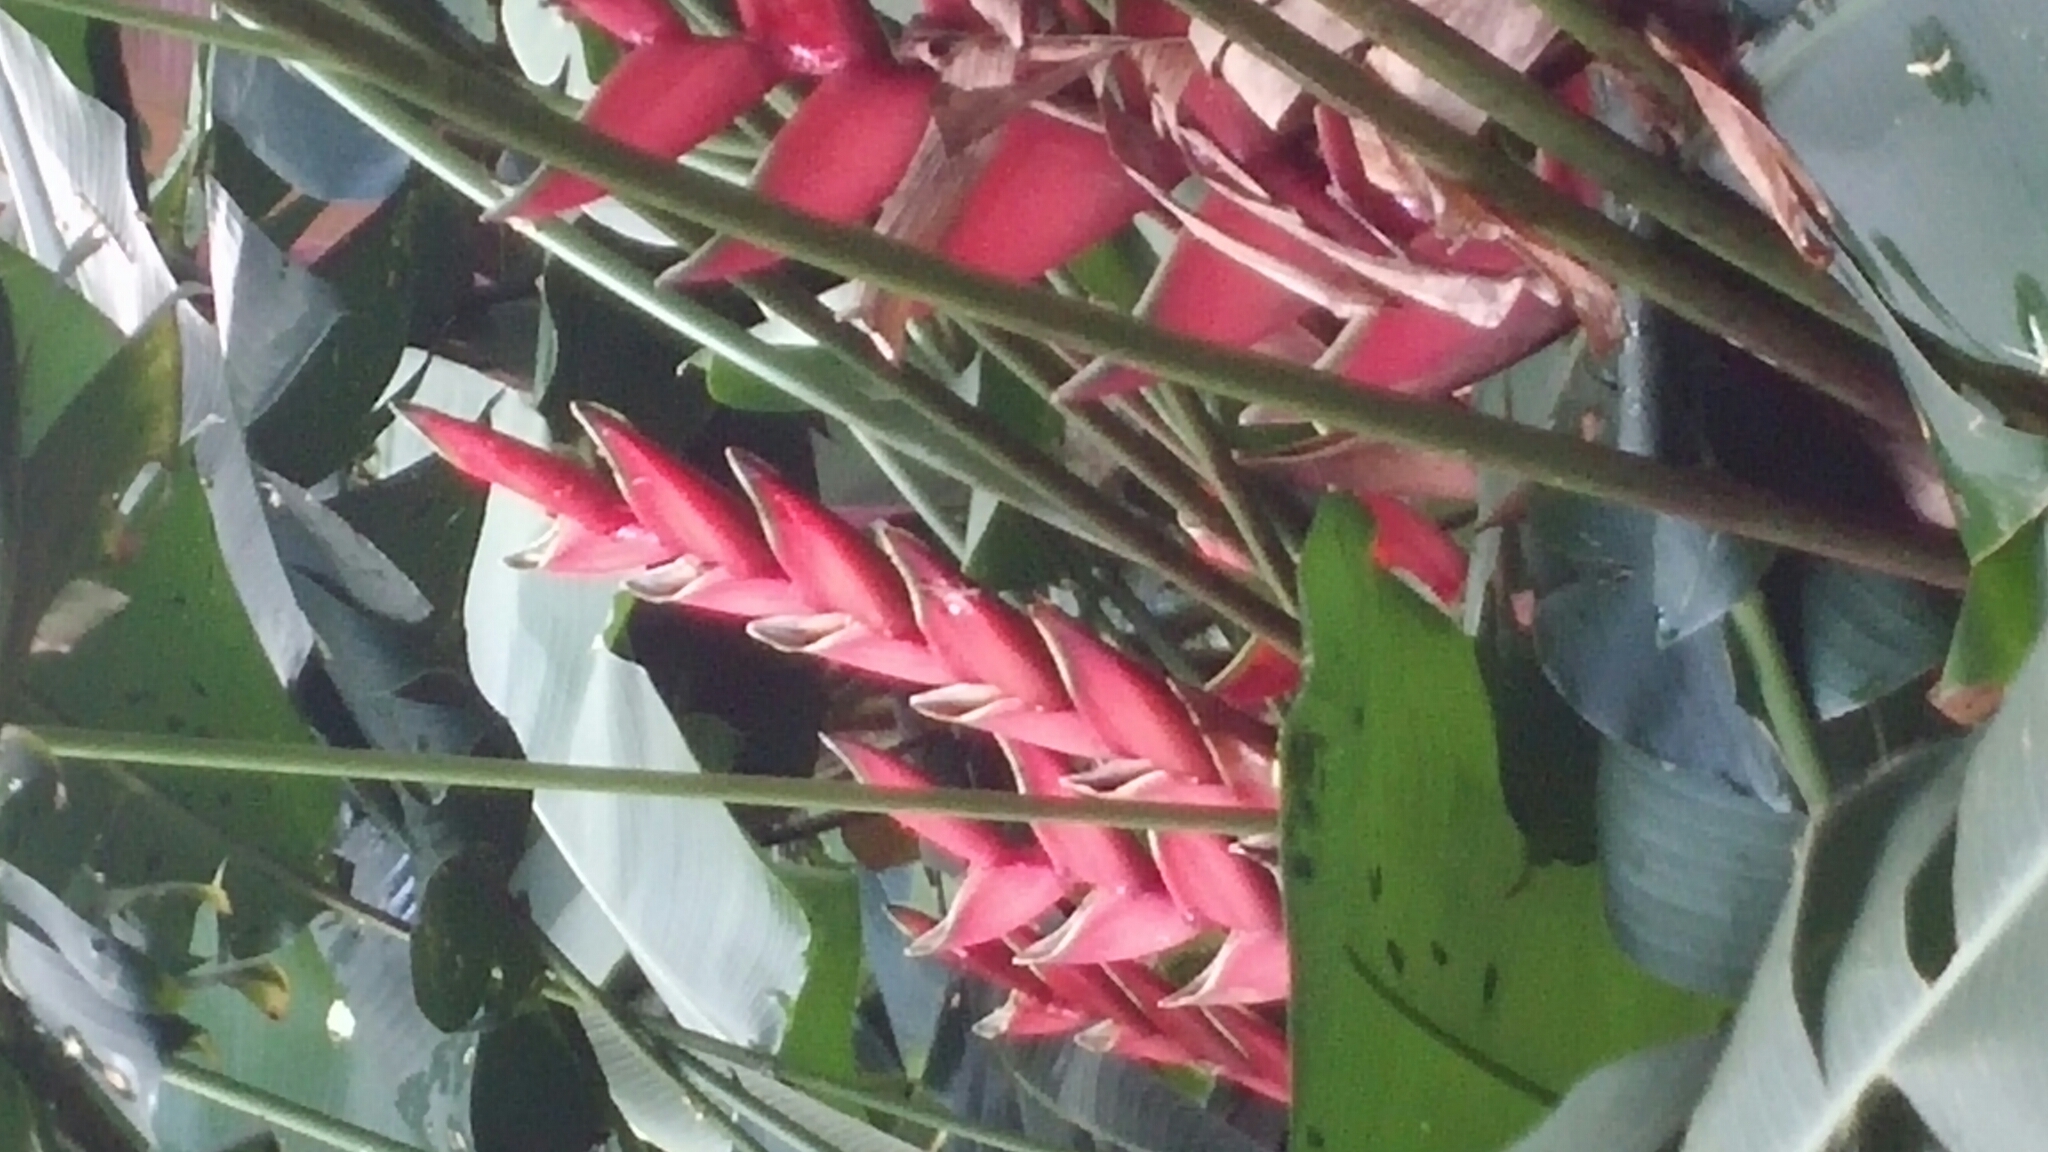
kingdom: Plantae
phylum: Tracheophyta
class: Liliopsida
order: Zingiberales
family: Heliconiaceae
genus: Heliconia
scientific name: Heliconia bihai
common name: Macaw flower
